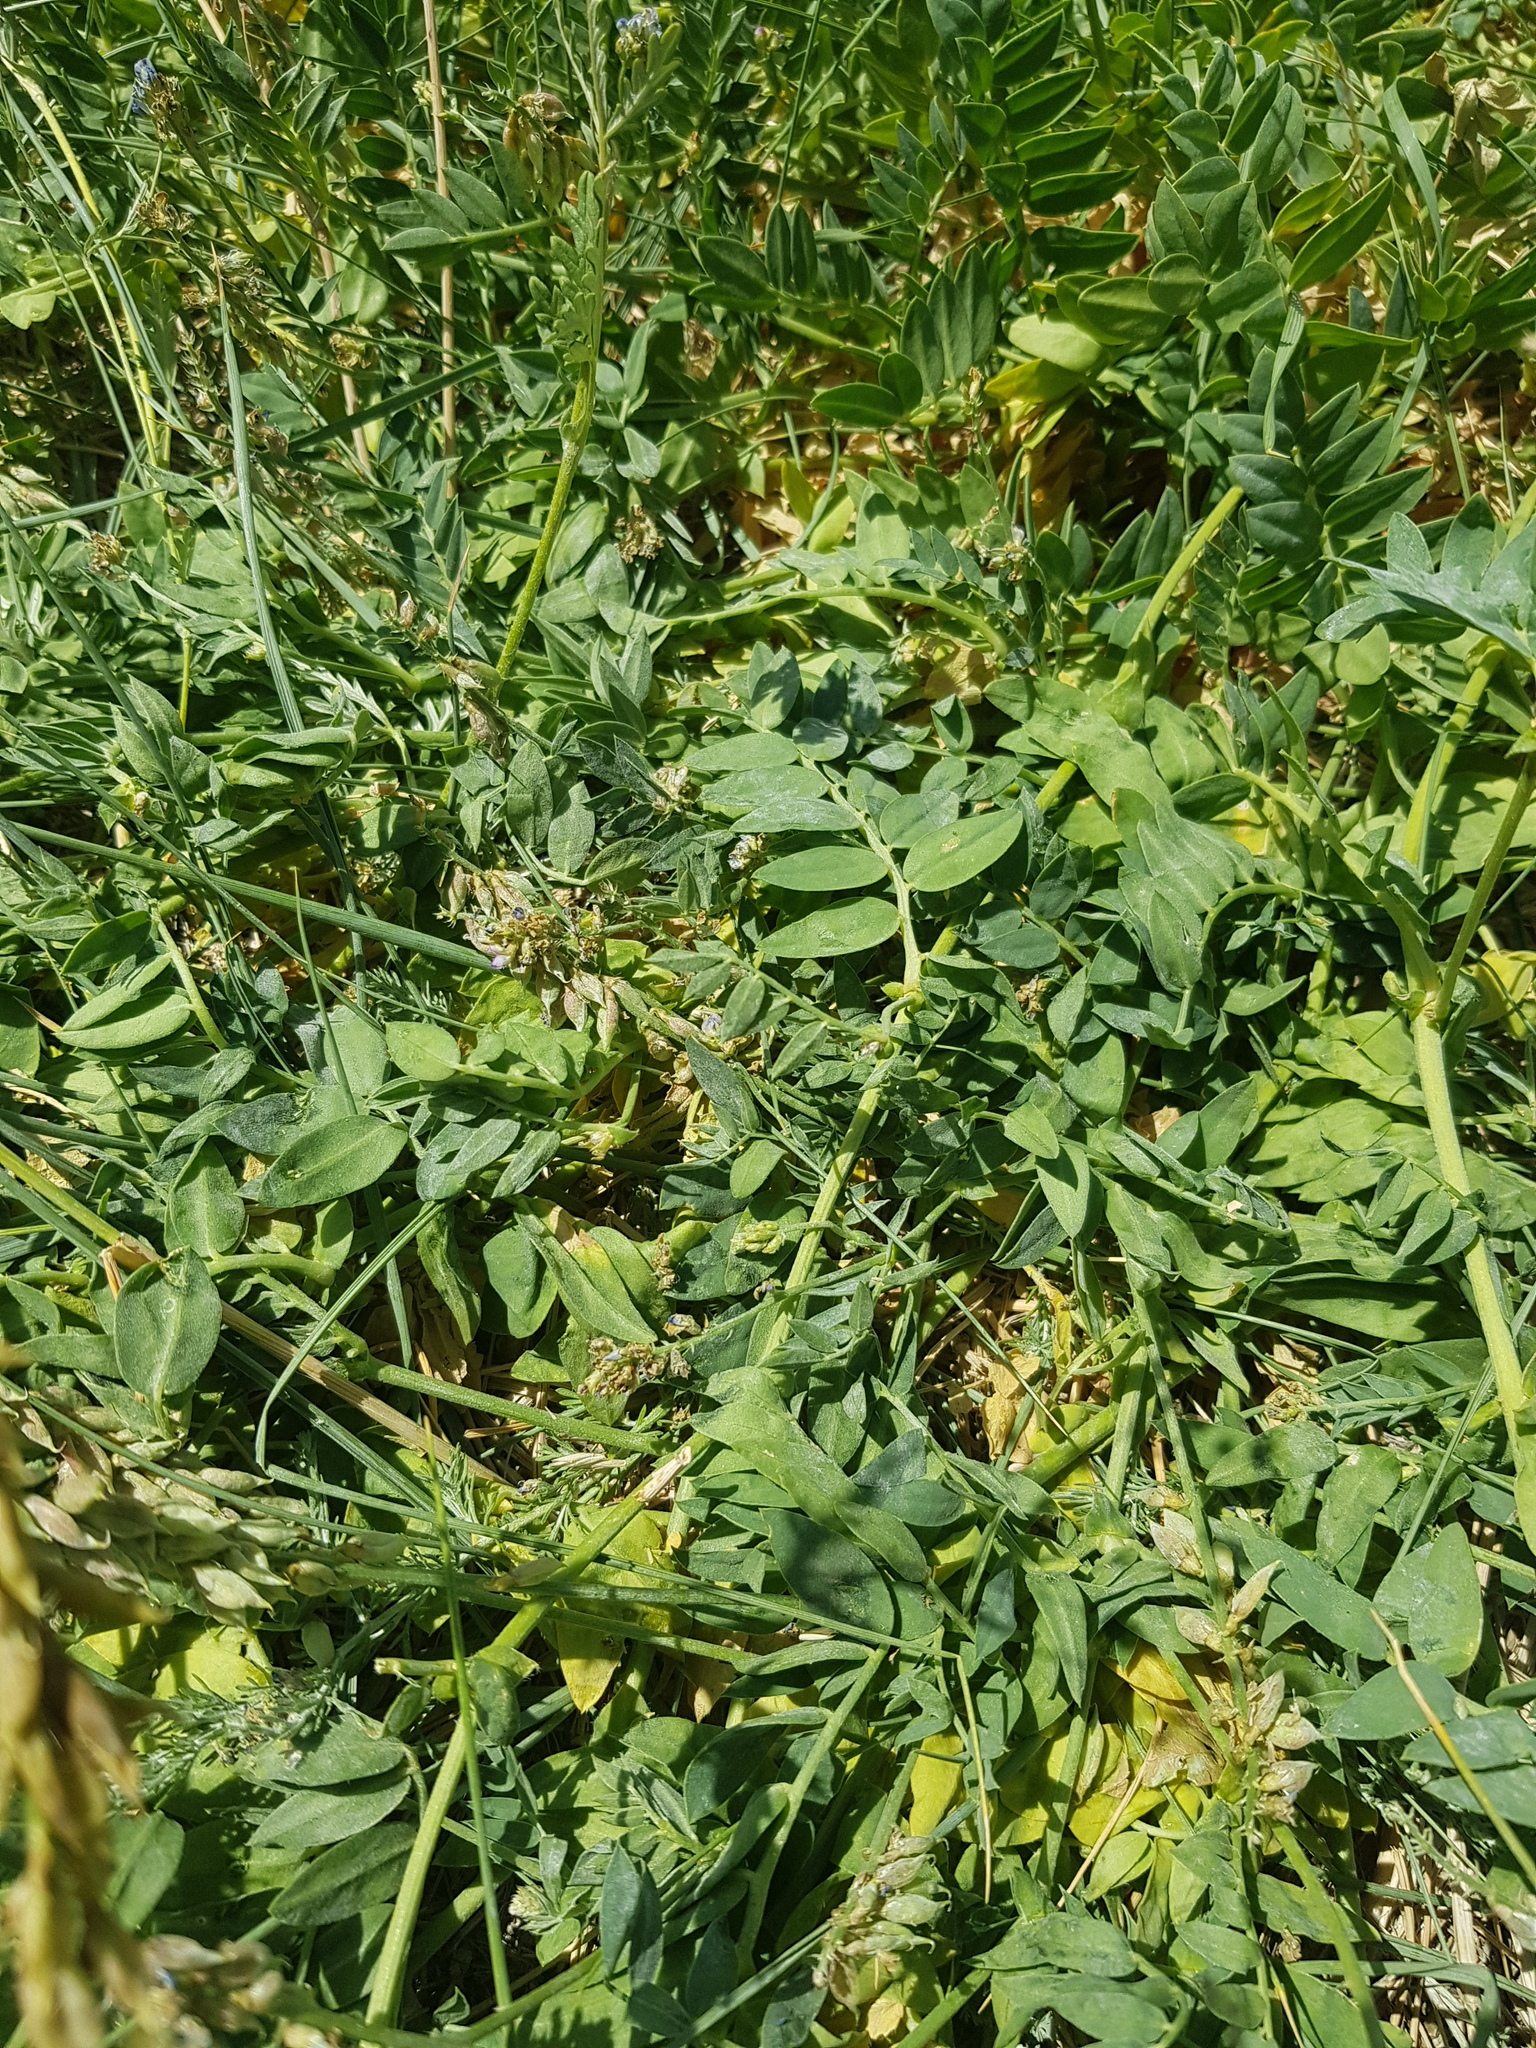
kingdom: Plantae
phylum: Tracheophyta
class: Magnoliopsida
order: Fabales
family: Fabaceae
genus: Oxytropis
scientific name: Oxytropis deflexa
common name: Stemmed oxytrope
